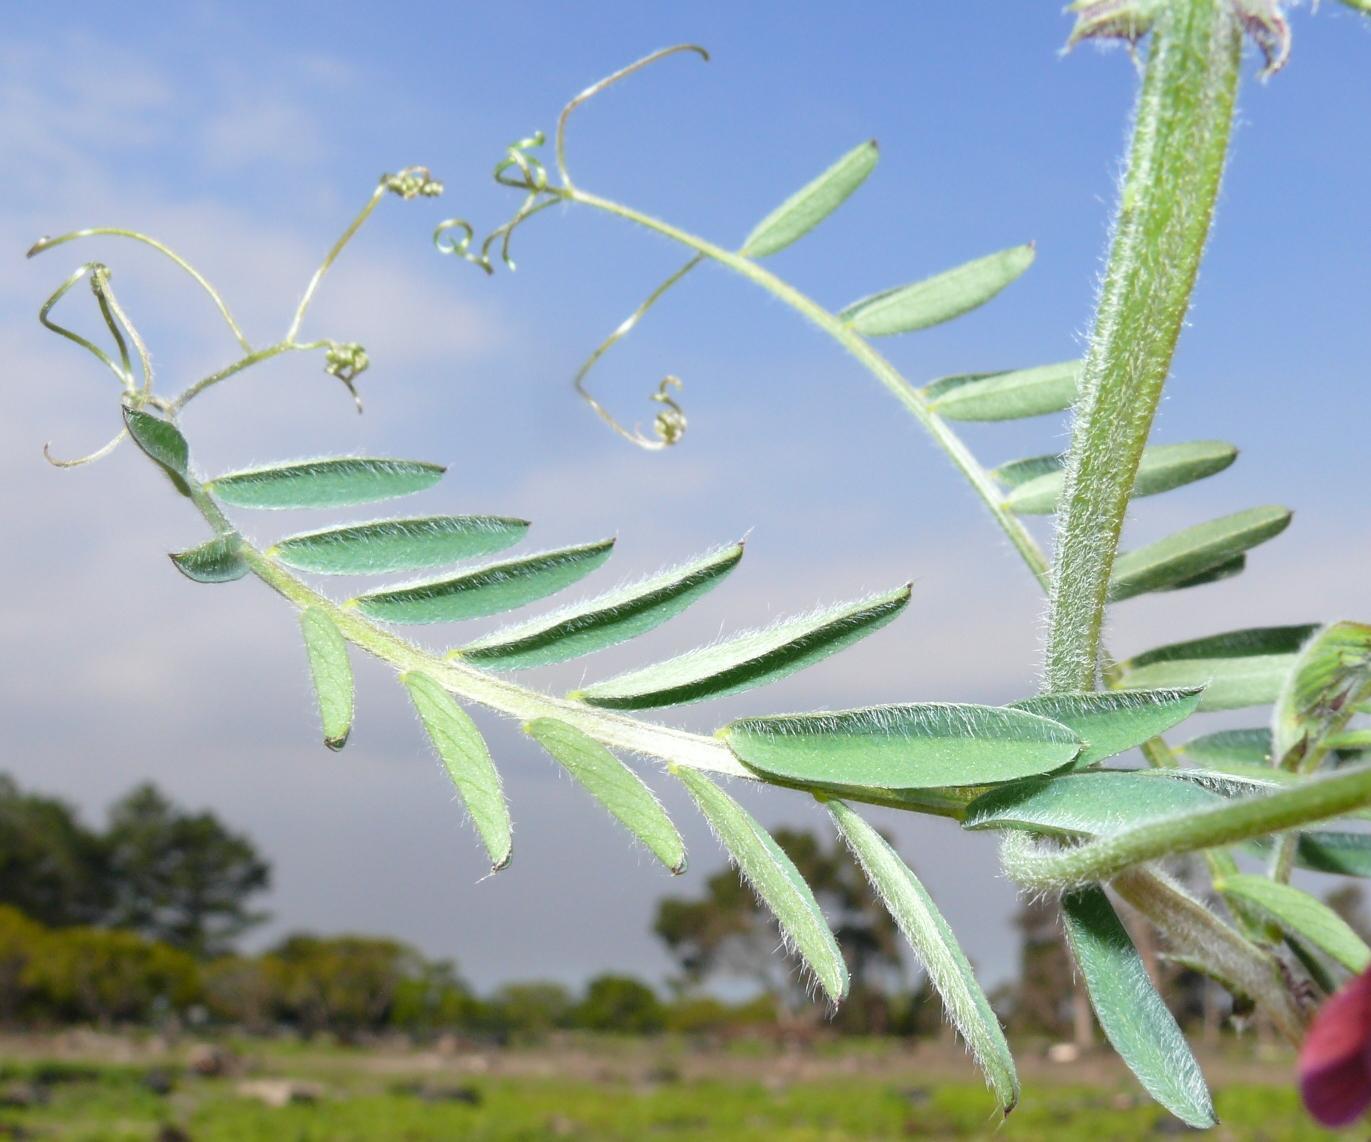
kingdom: Plantae
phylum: Tracheophyta
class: Magnoliopsida
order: Fabales
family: Fabaceae
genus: Vicia
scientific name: Vicia benghalensis
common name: Purple vetch
